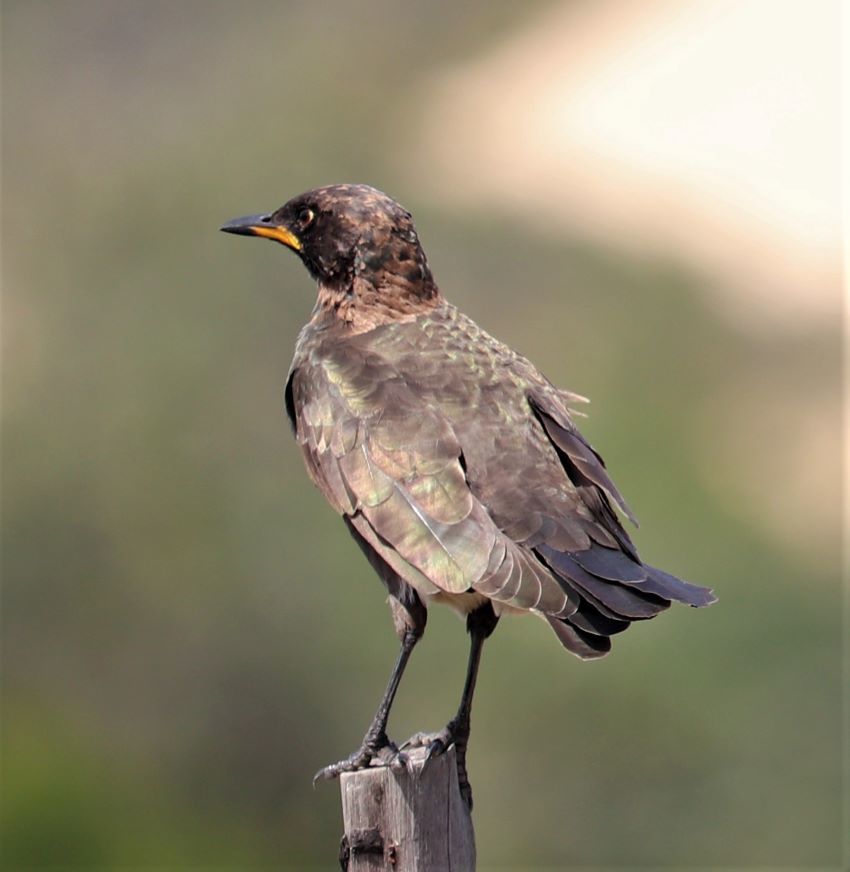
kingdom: Animalia
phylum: Chordata
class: Aves
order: Passeriformes
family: Sturnidae
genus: Lamprotornis
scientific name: Lamprotornis bicolor
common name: Pied starling
